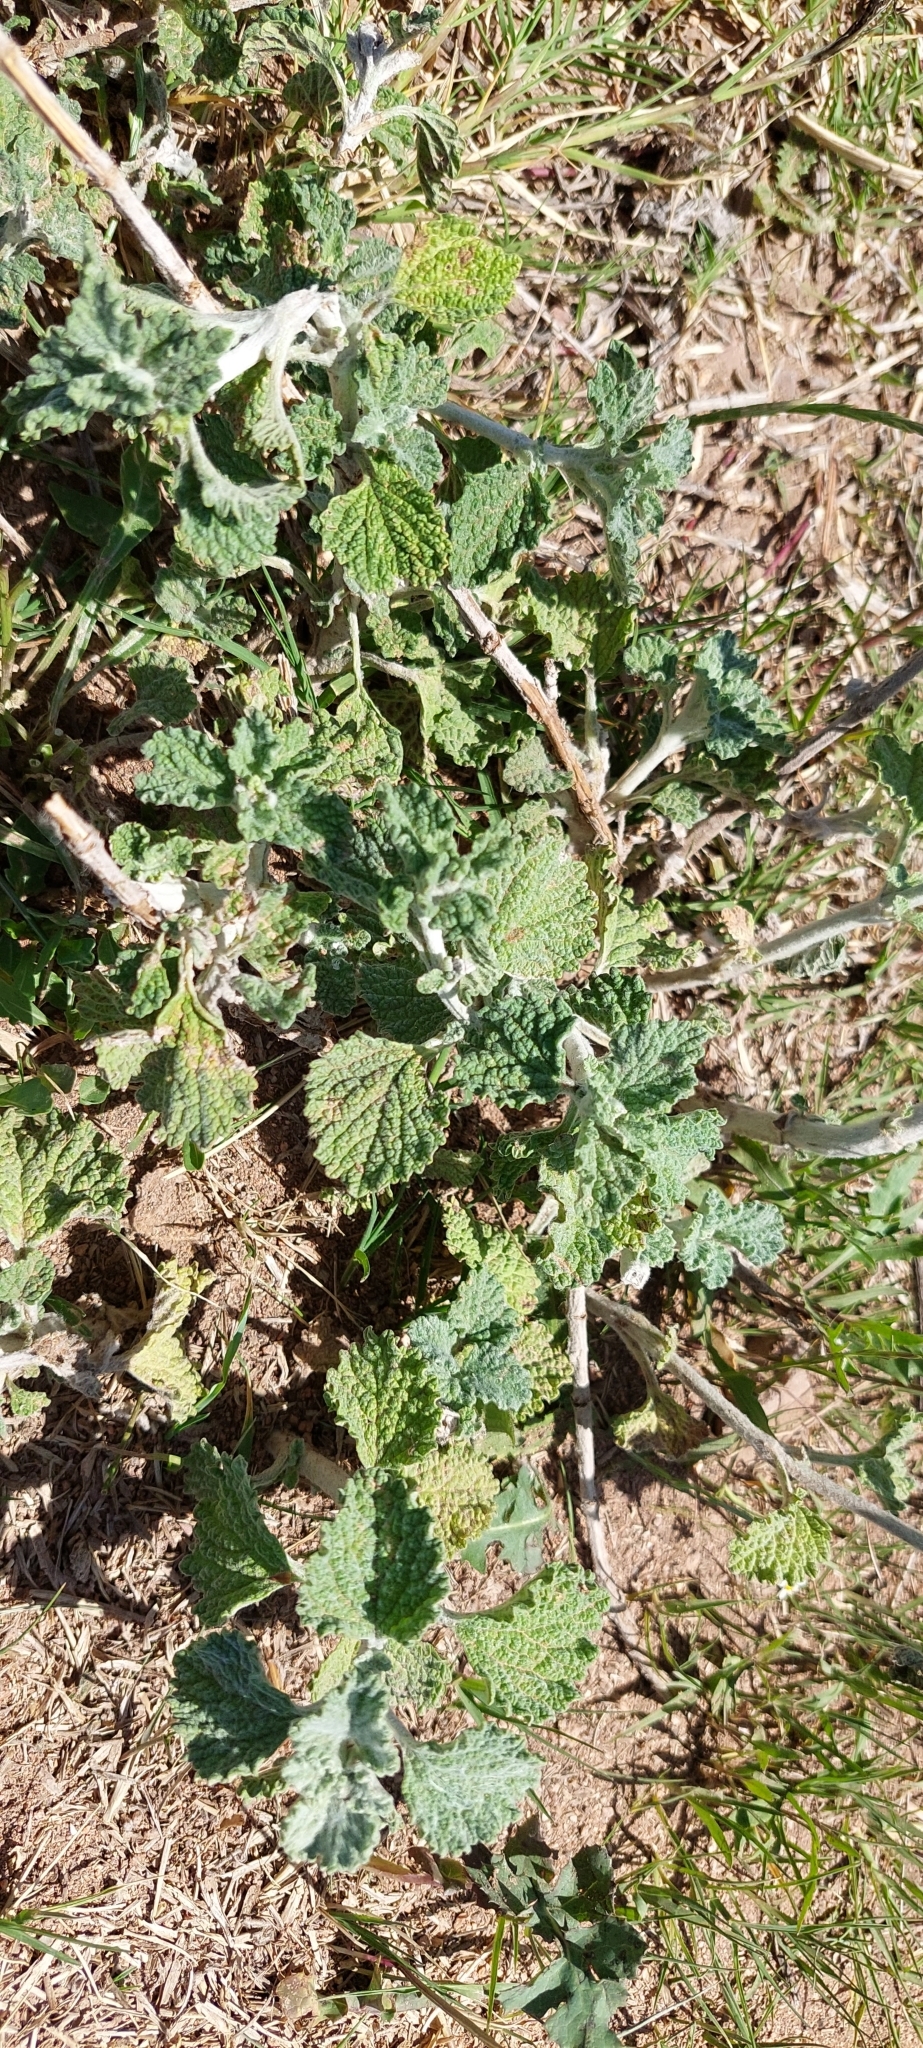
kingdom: Plantae
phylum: Tracheophyta
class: Magnoliopsida
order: Lamiales
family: Lamiaceae
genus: Marrubium
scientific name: Marrubium vulgare
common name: Horehound
